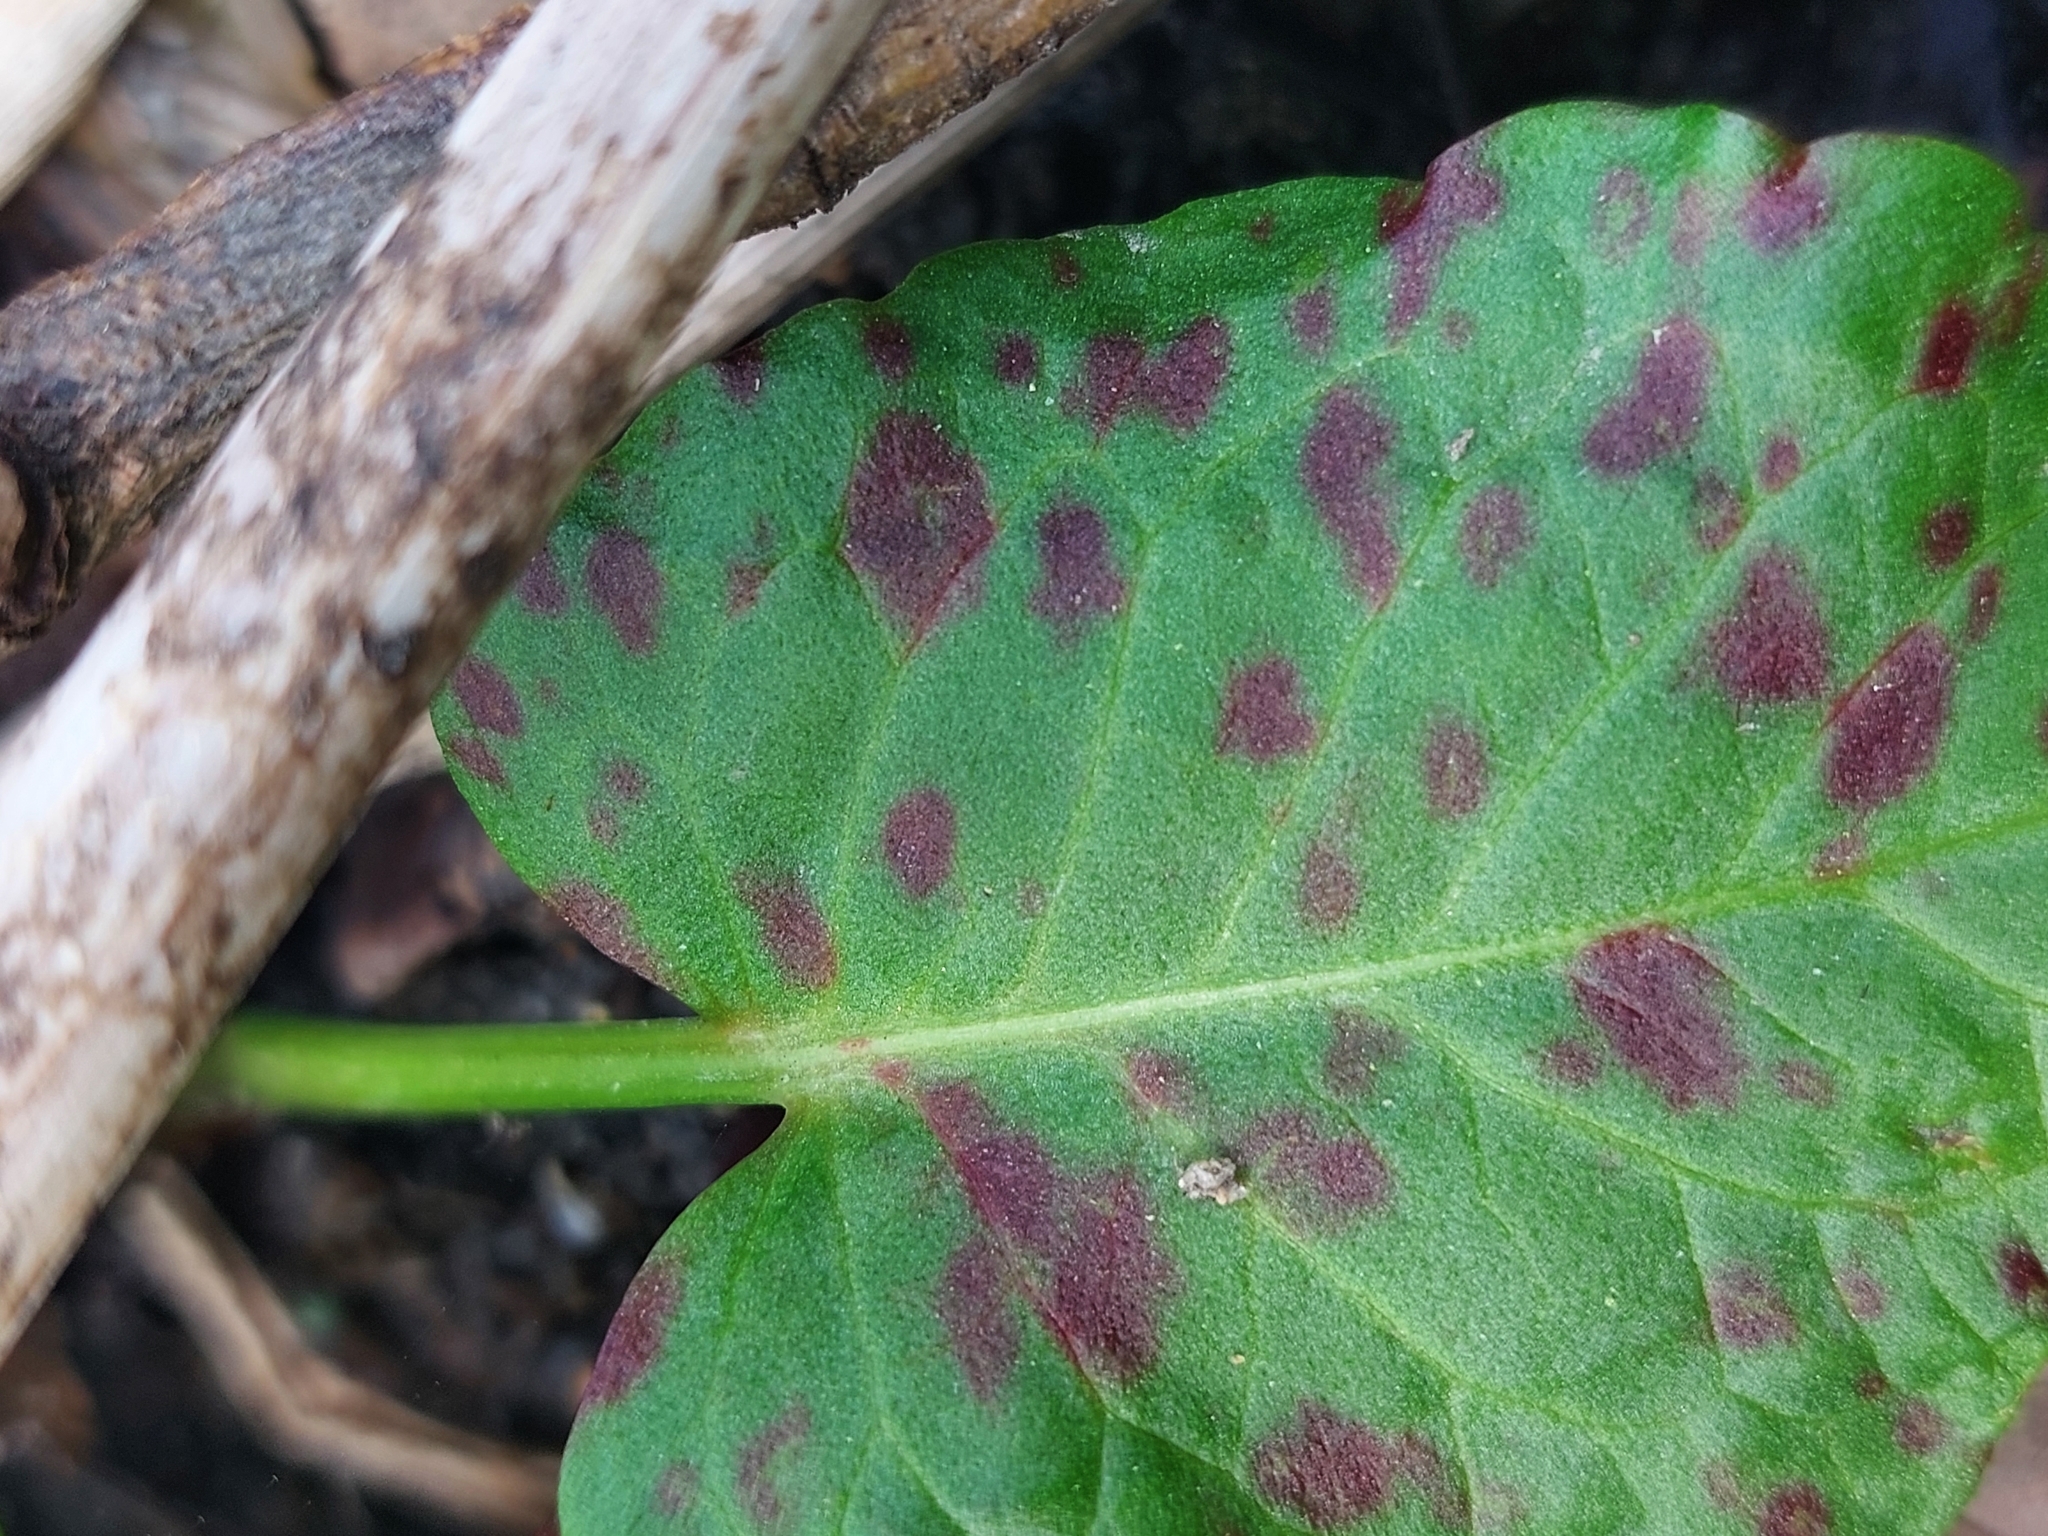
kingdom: Plantae
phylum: Tracheophyta
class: Magnoliopsida
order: Caryophyllales
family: Polygonaceae
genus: Rumex
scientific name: Rumex obtusifolius
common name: Bitter dock
